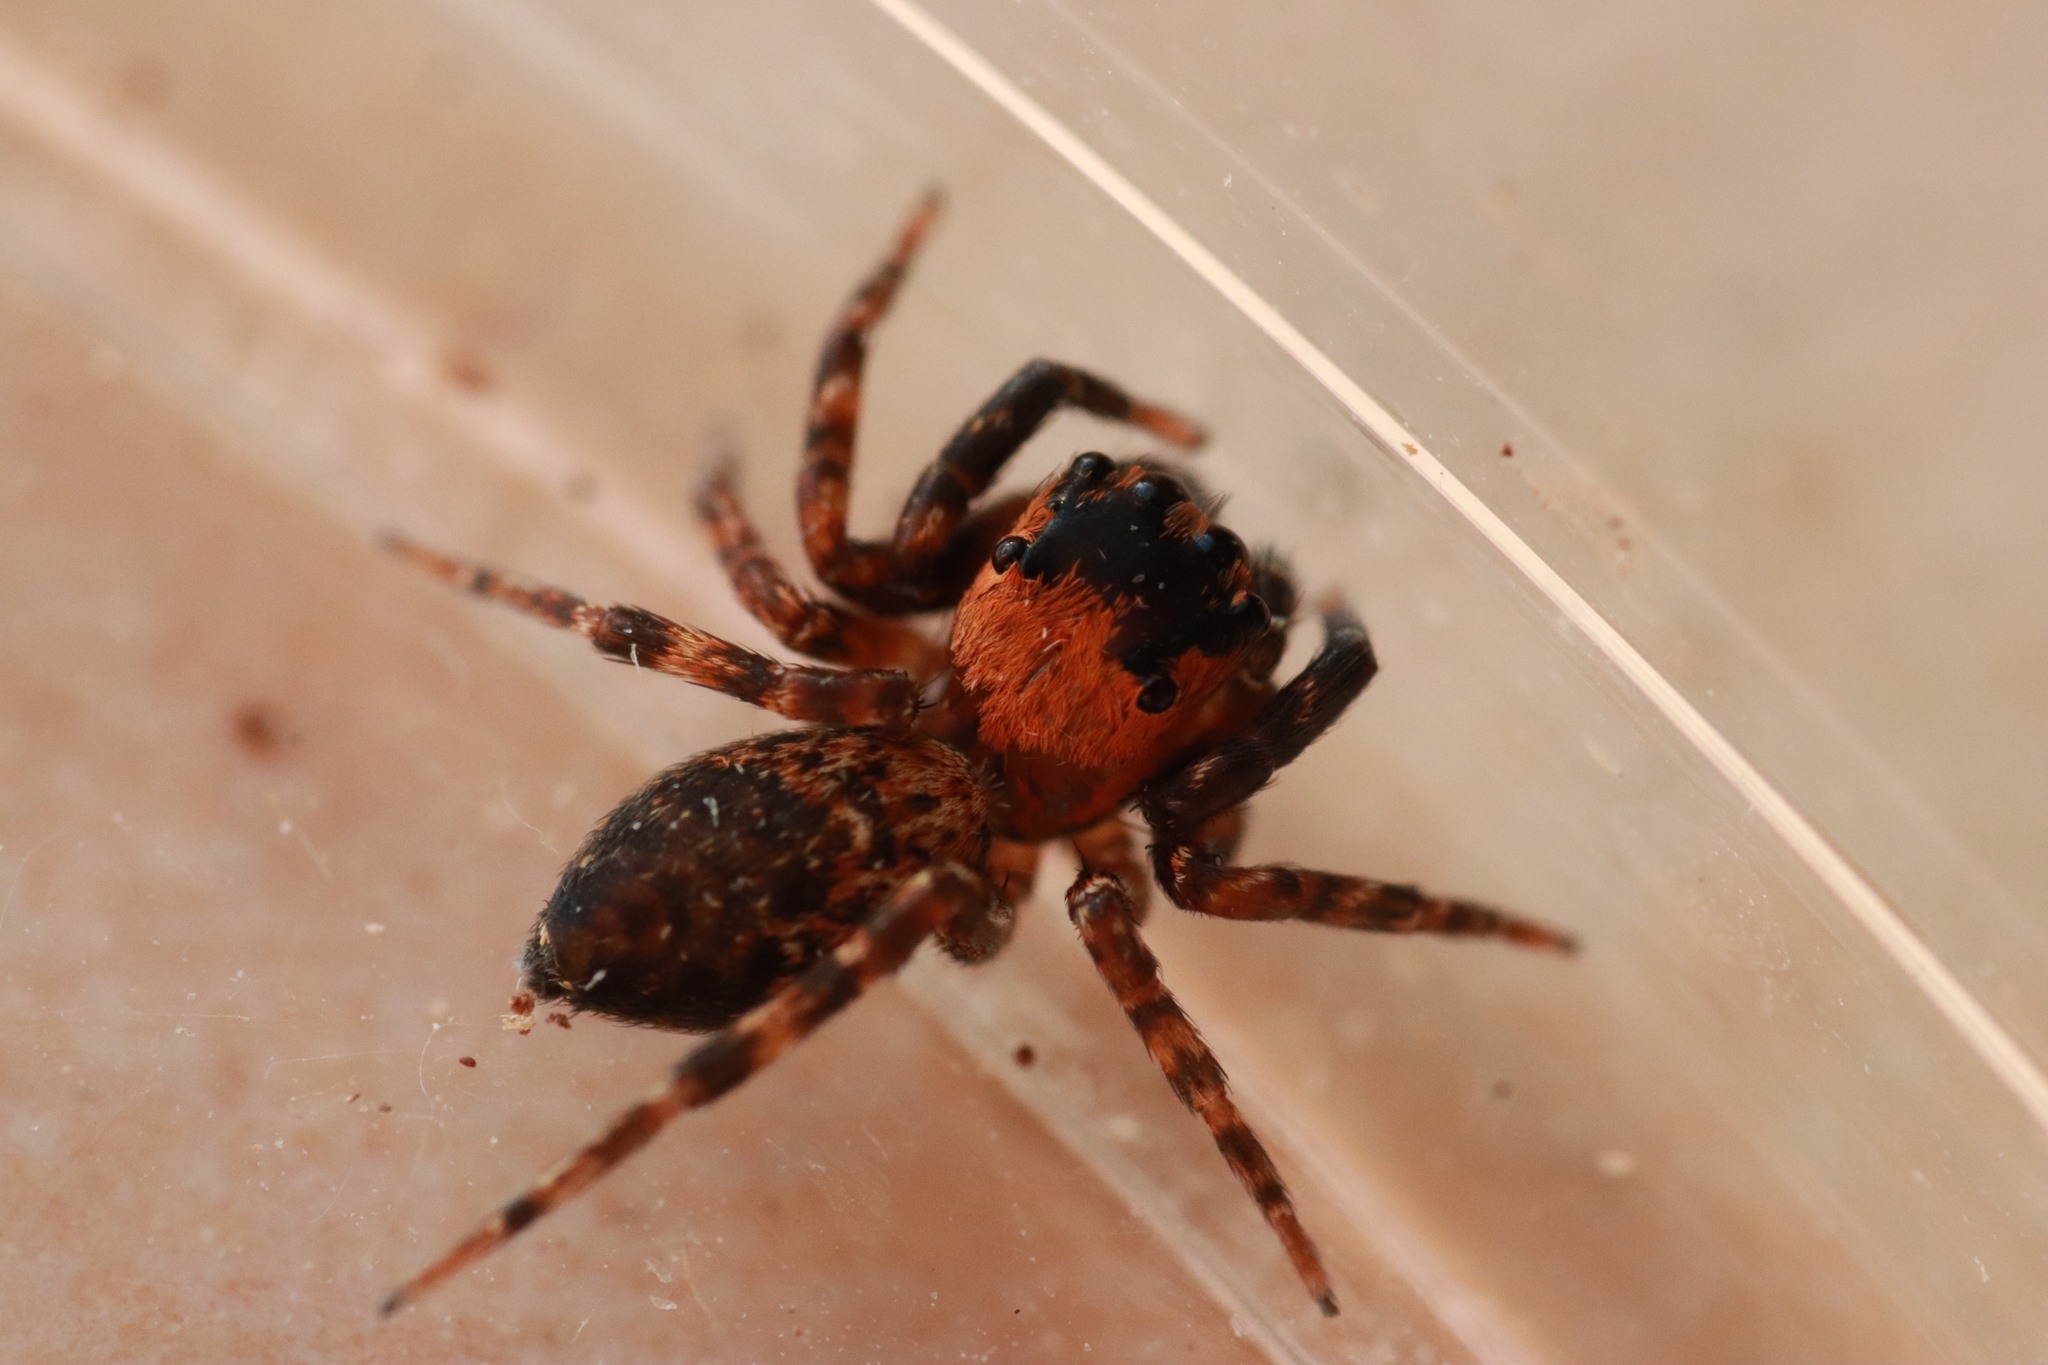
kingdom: Animalia
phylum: Arthropoda
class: Arachnida
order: Araneae
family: Salticidae
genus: Cyrba
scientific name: Cyrba algerina
